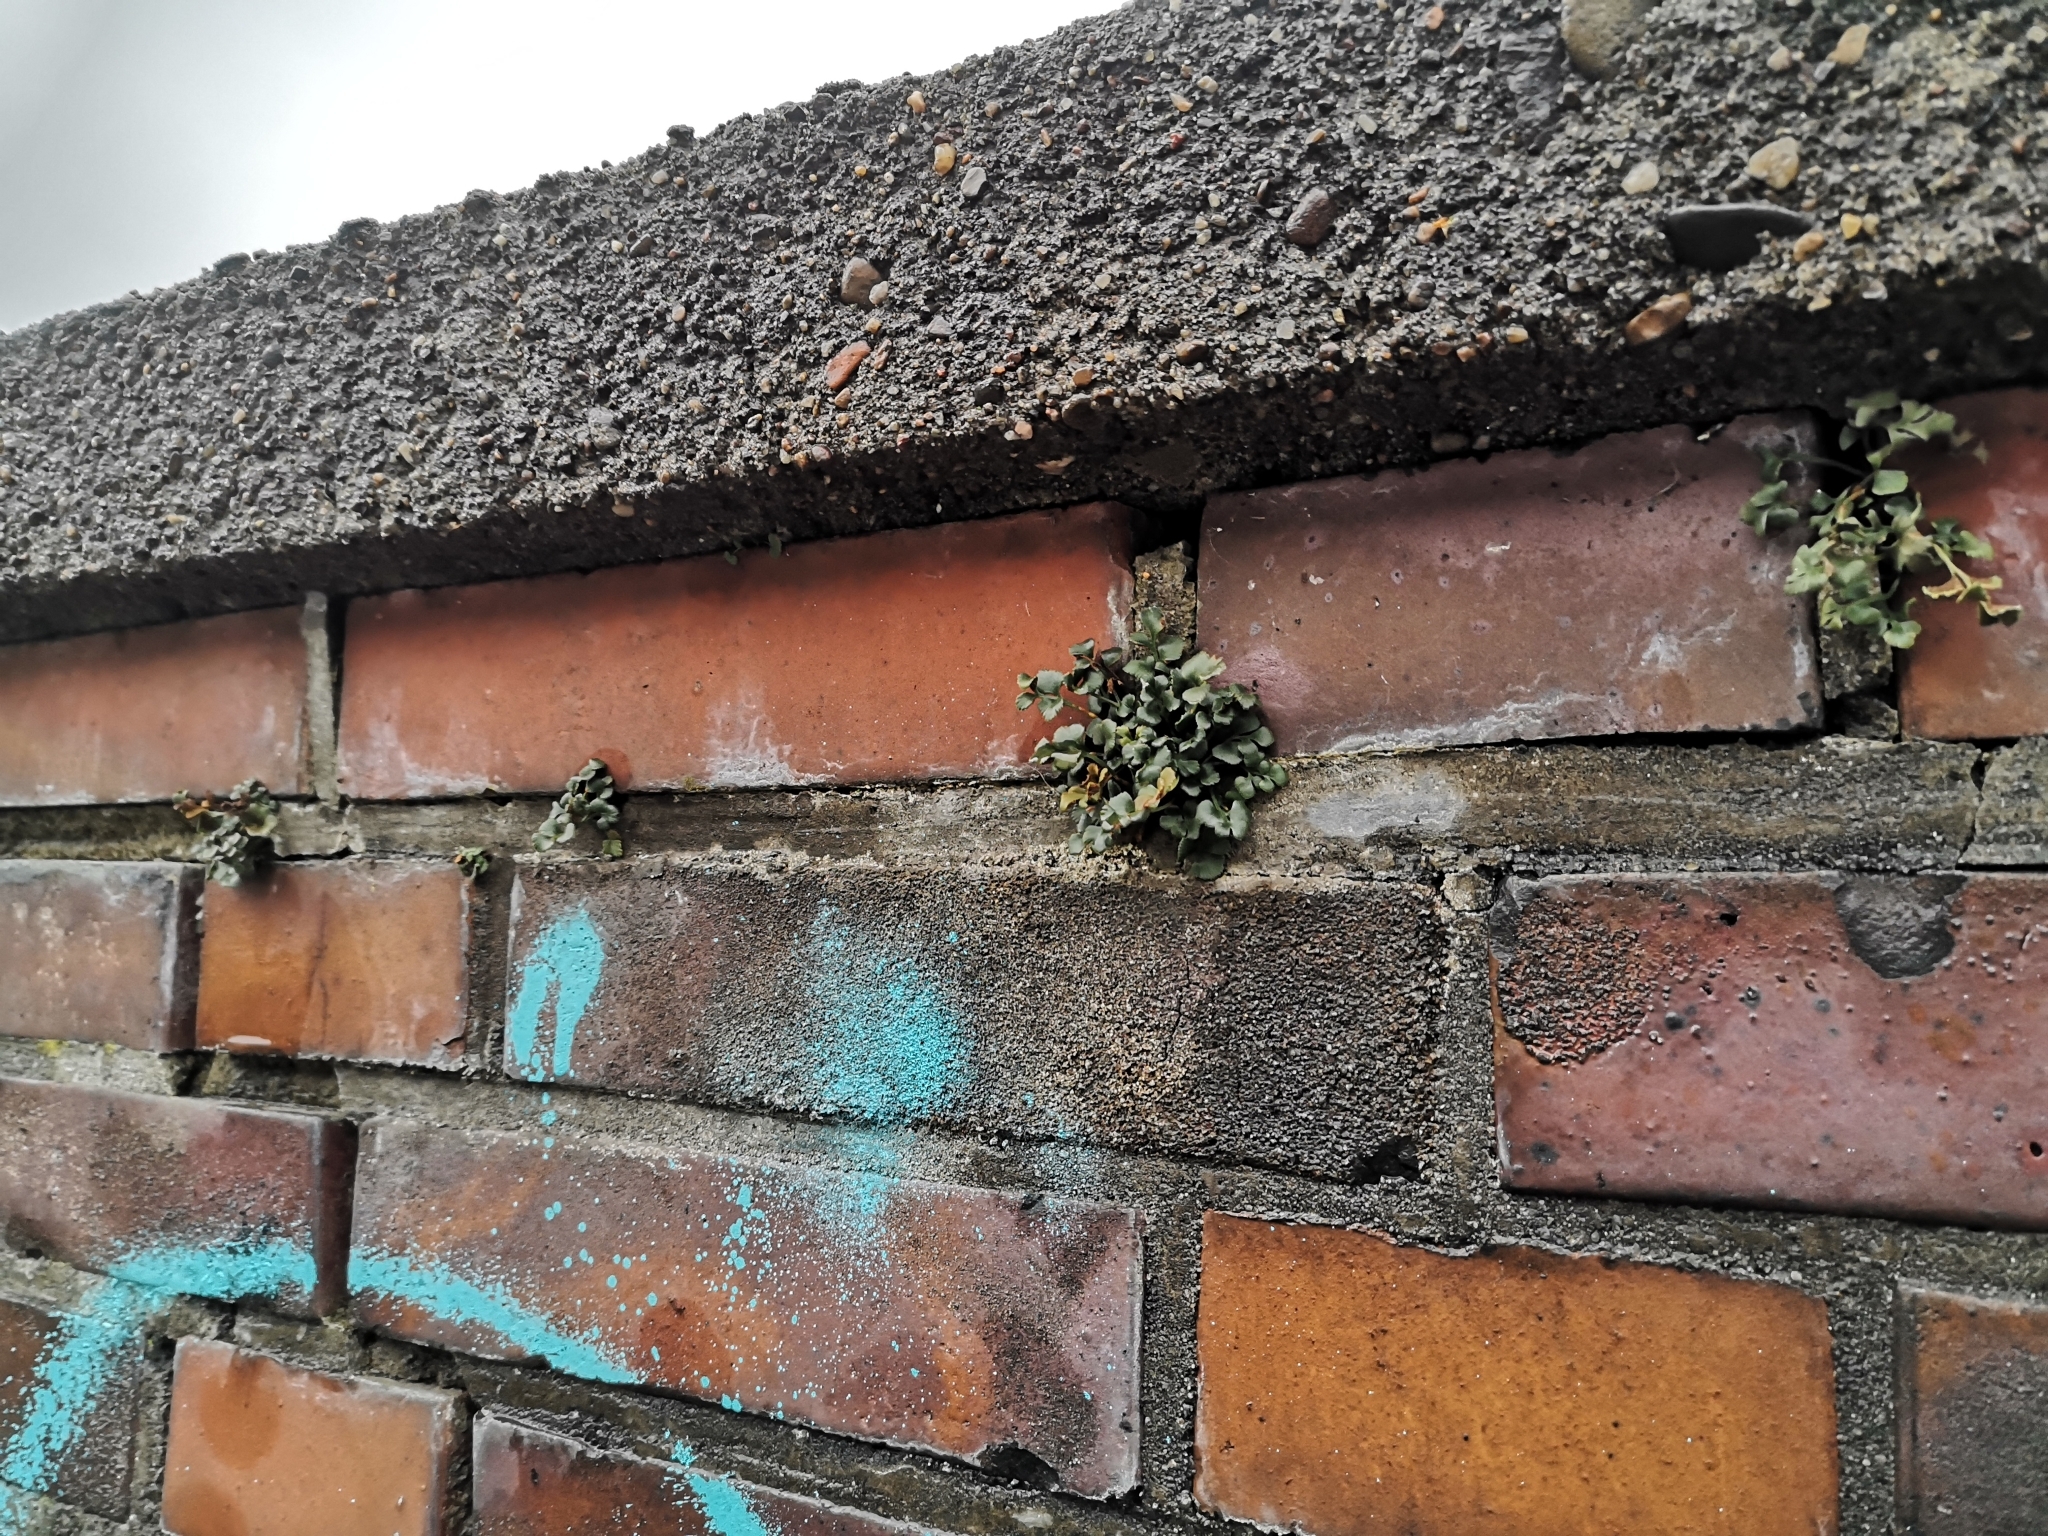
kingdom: Plantae
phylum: Tracheophyta
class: Polypodiopsida
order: Polypodiales
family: Aspleniaceae
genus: Asplenium
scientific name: Asplenium ruta-muraria
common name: Wall-rue
